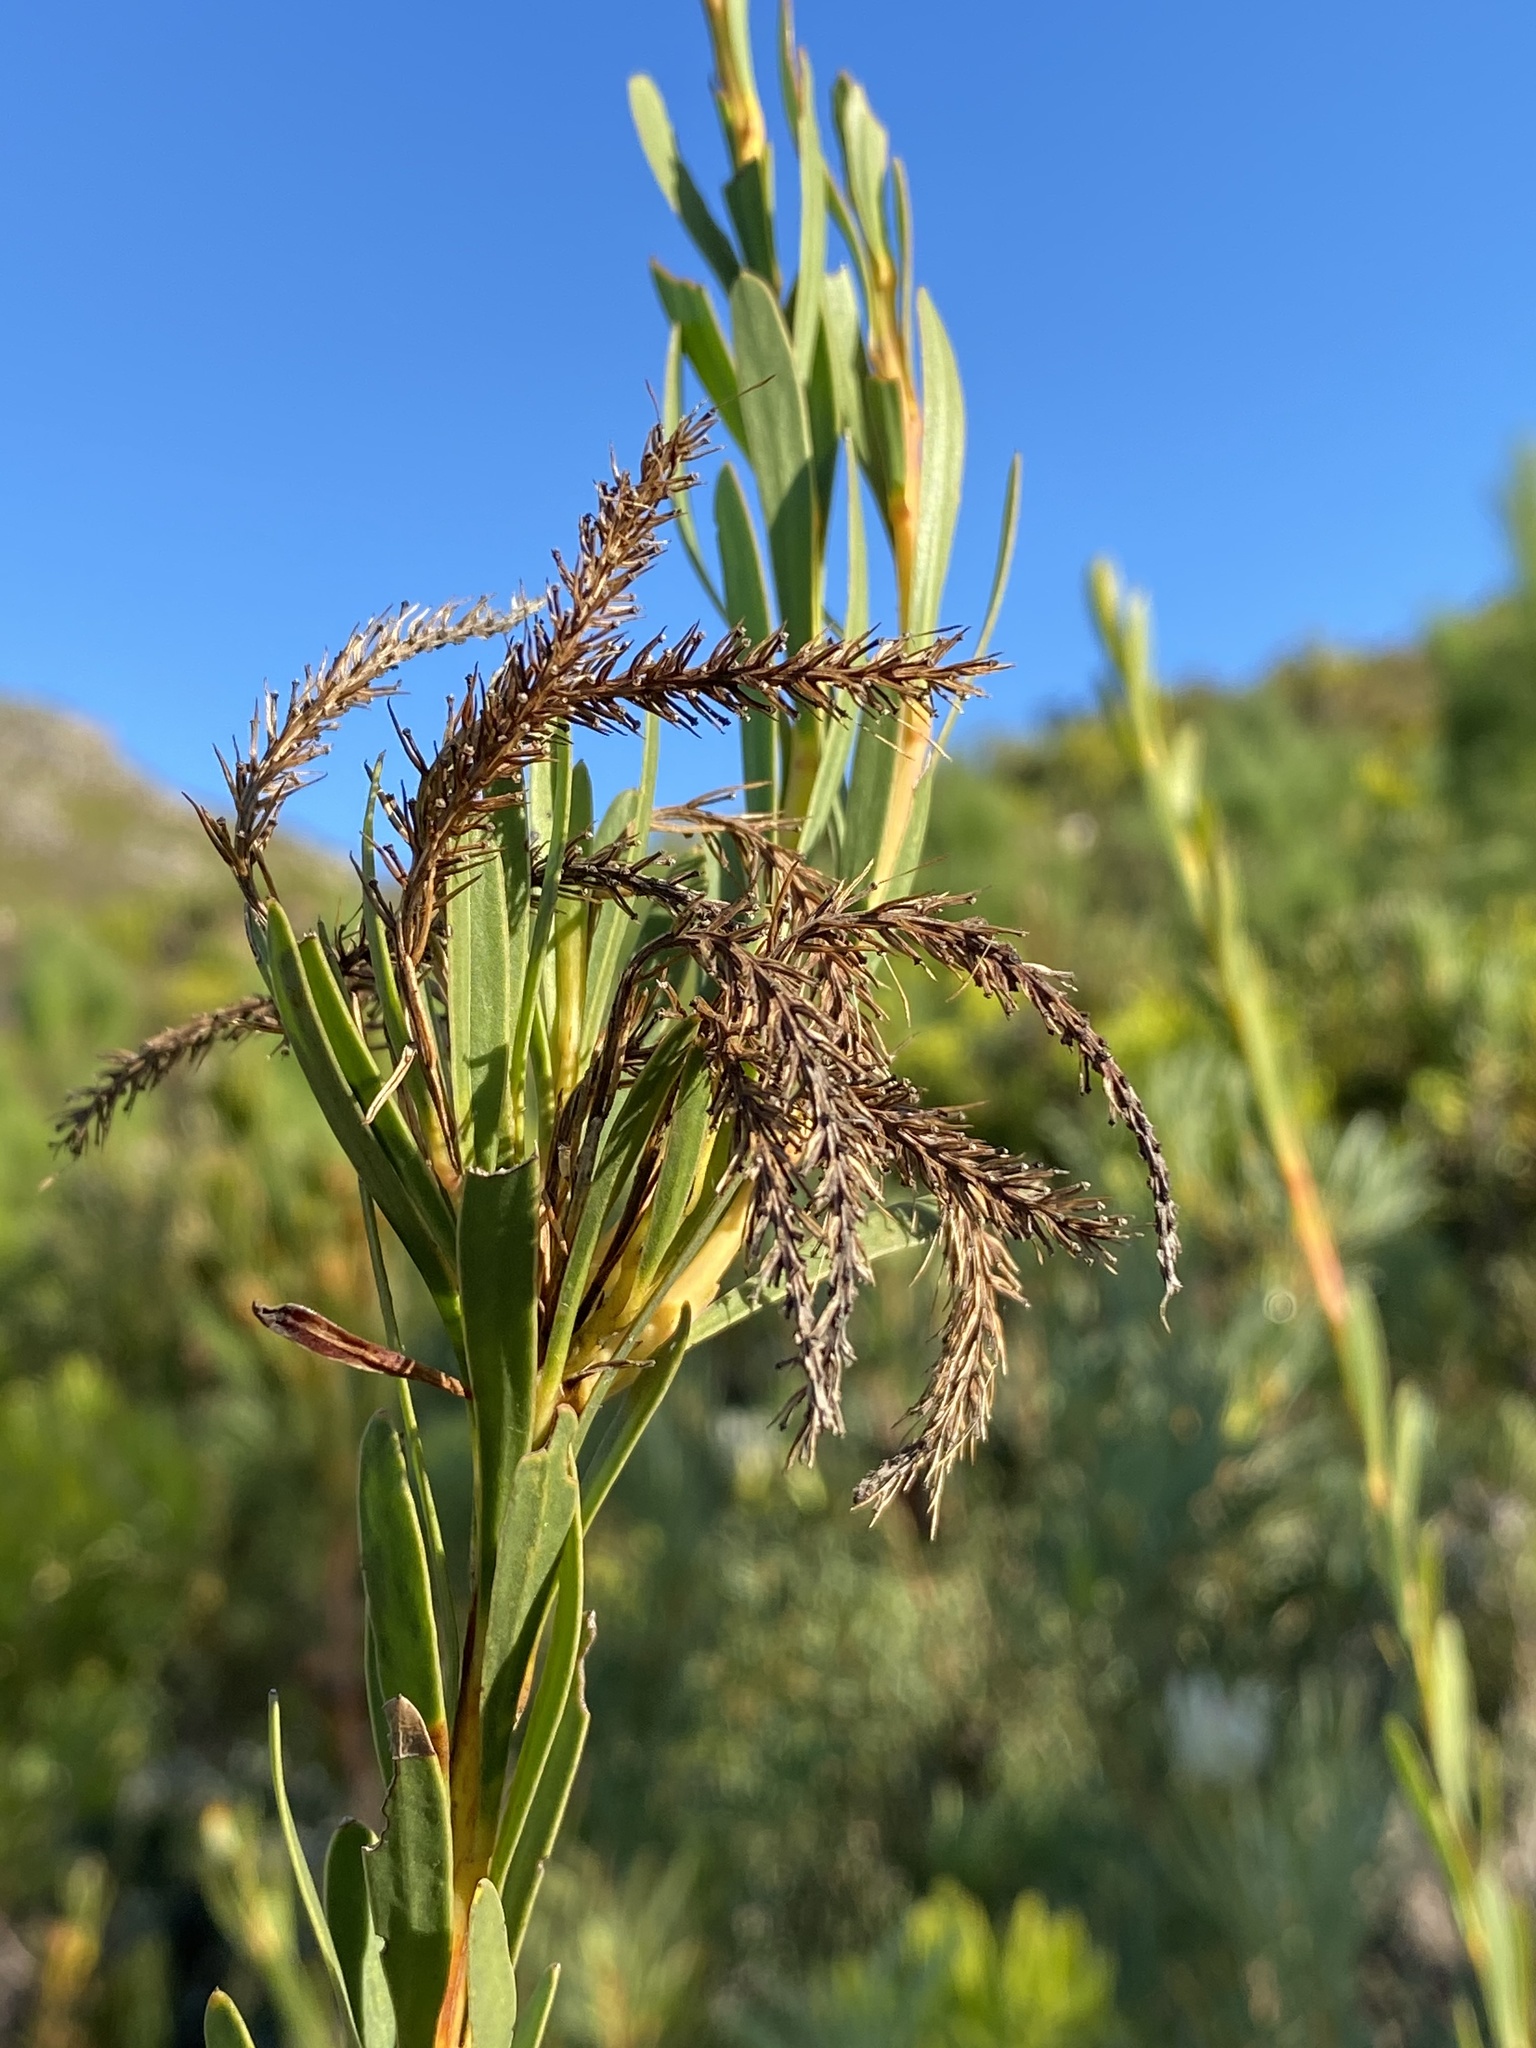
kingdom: Plantae
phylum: Tracheophyta
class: Magnoliopsida
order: Proteales
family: Proteaceae
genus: Aulax
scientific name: Aulax umbellata
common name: Broad-leaf featherbush
